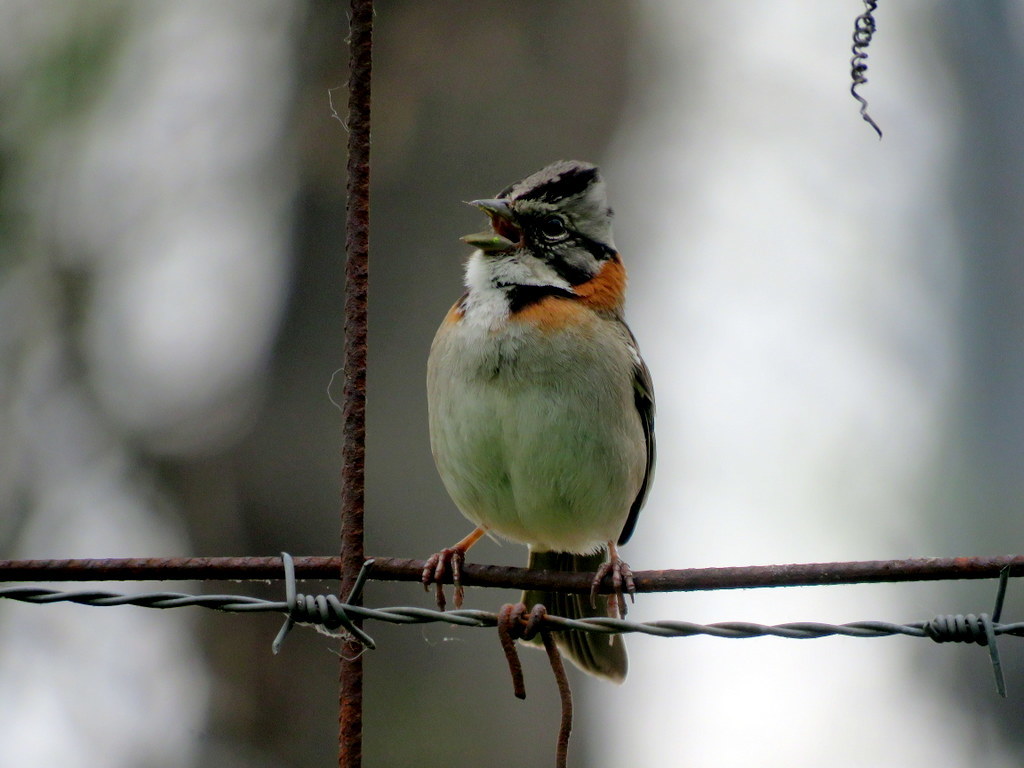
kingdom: Animalia
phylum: Chordata
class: Aves
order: Passeriformes
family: Passerellidae
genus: Zonotrichia
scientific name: Zonotrichia capensis
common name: Rufous-collared sparrow
